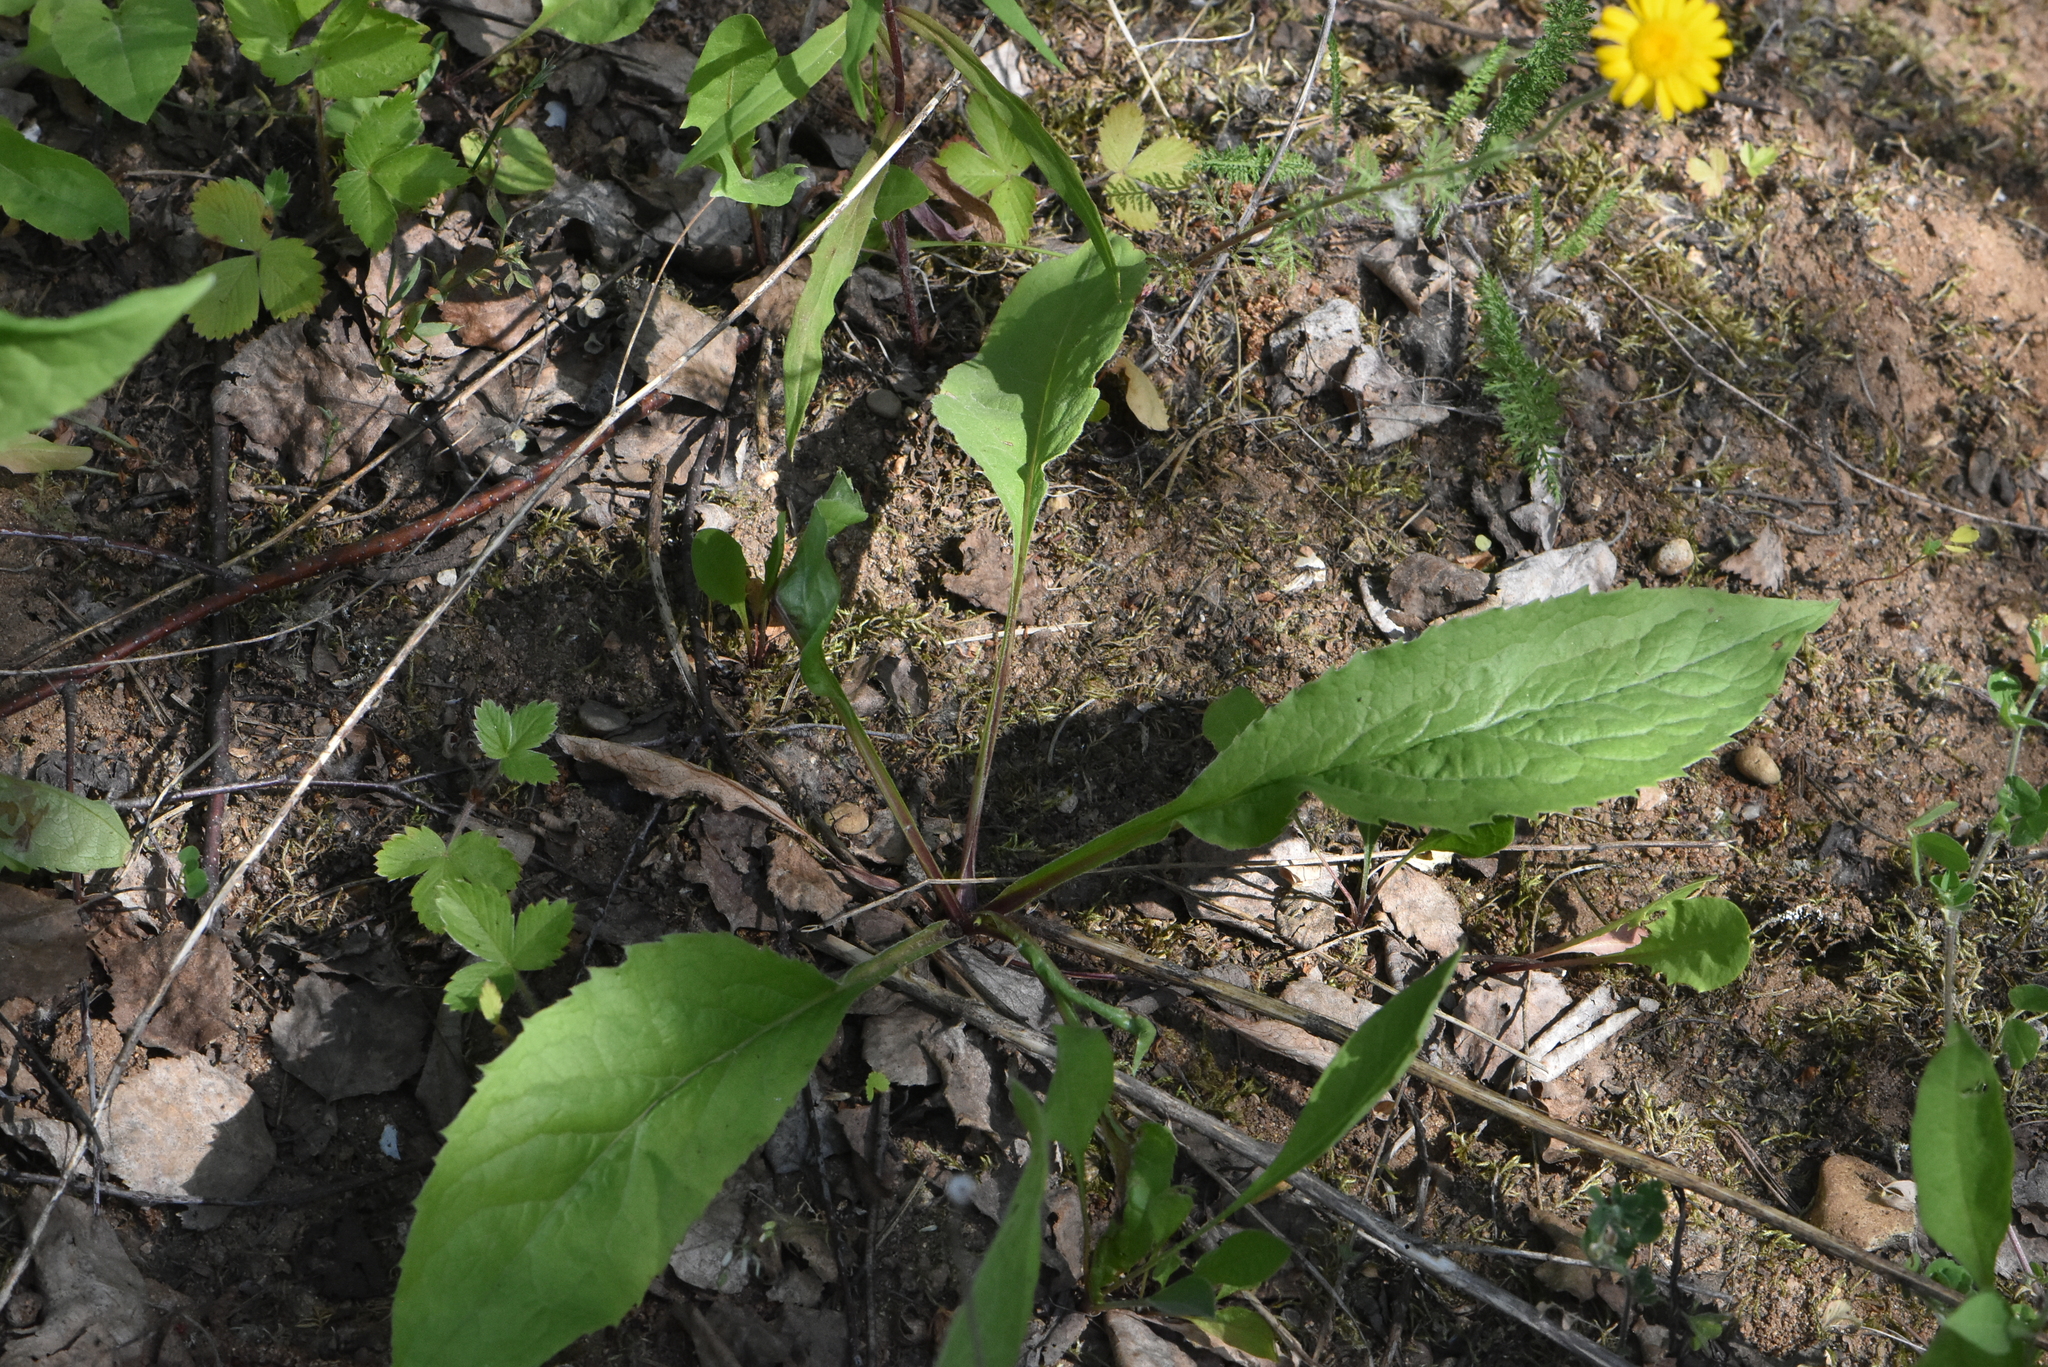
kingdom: Plantae
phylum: Tracheophyta
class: Magnoliopsida
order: Asterales
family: Asteraceae
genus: Solidago
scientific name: Solidago virgaurea
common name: Goldenrod
